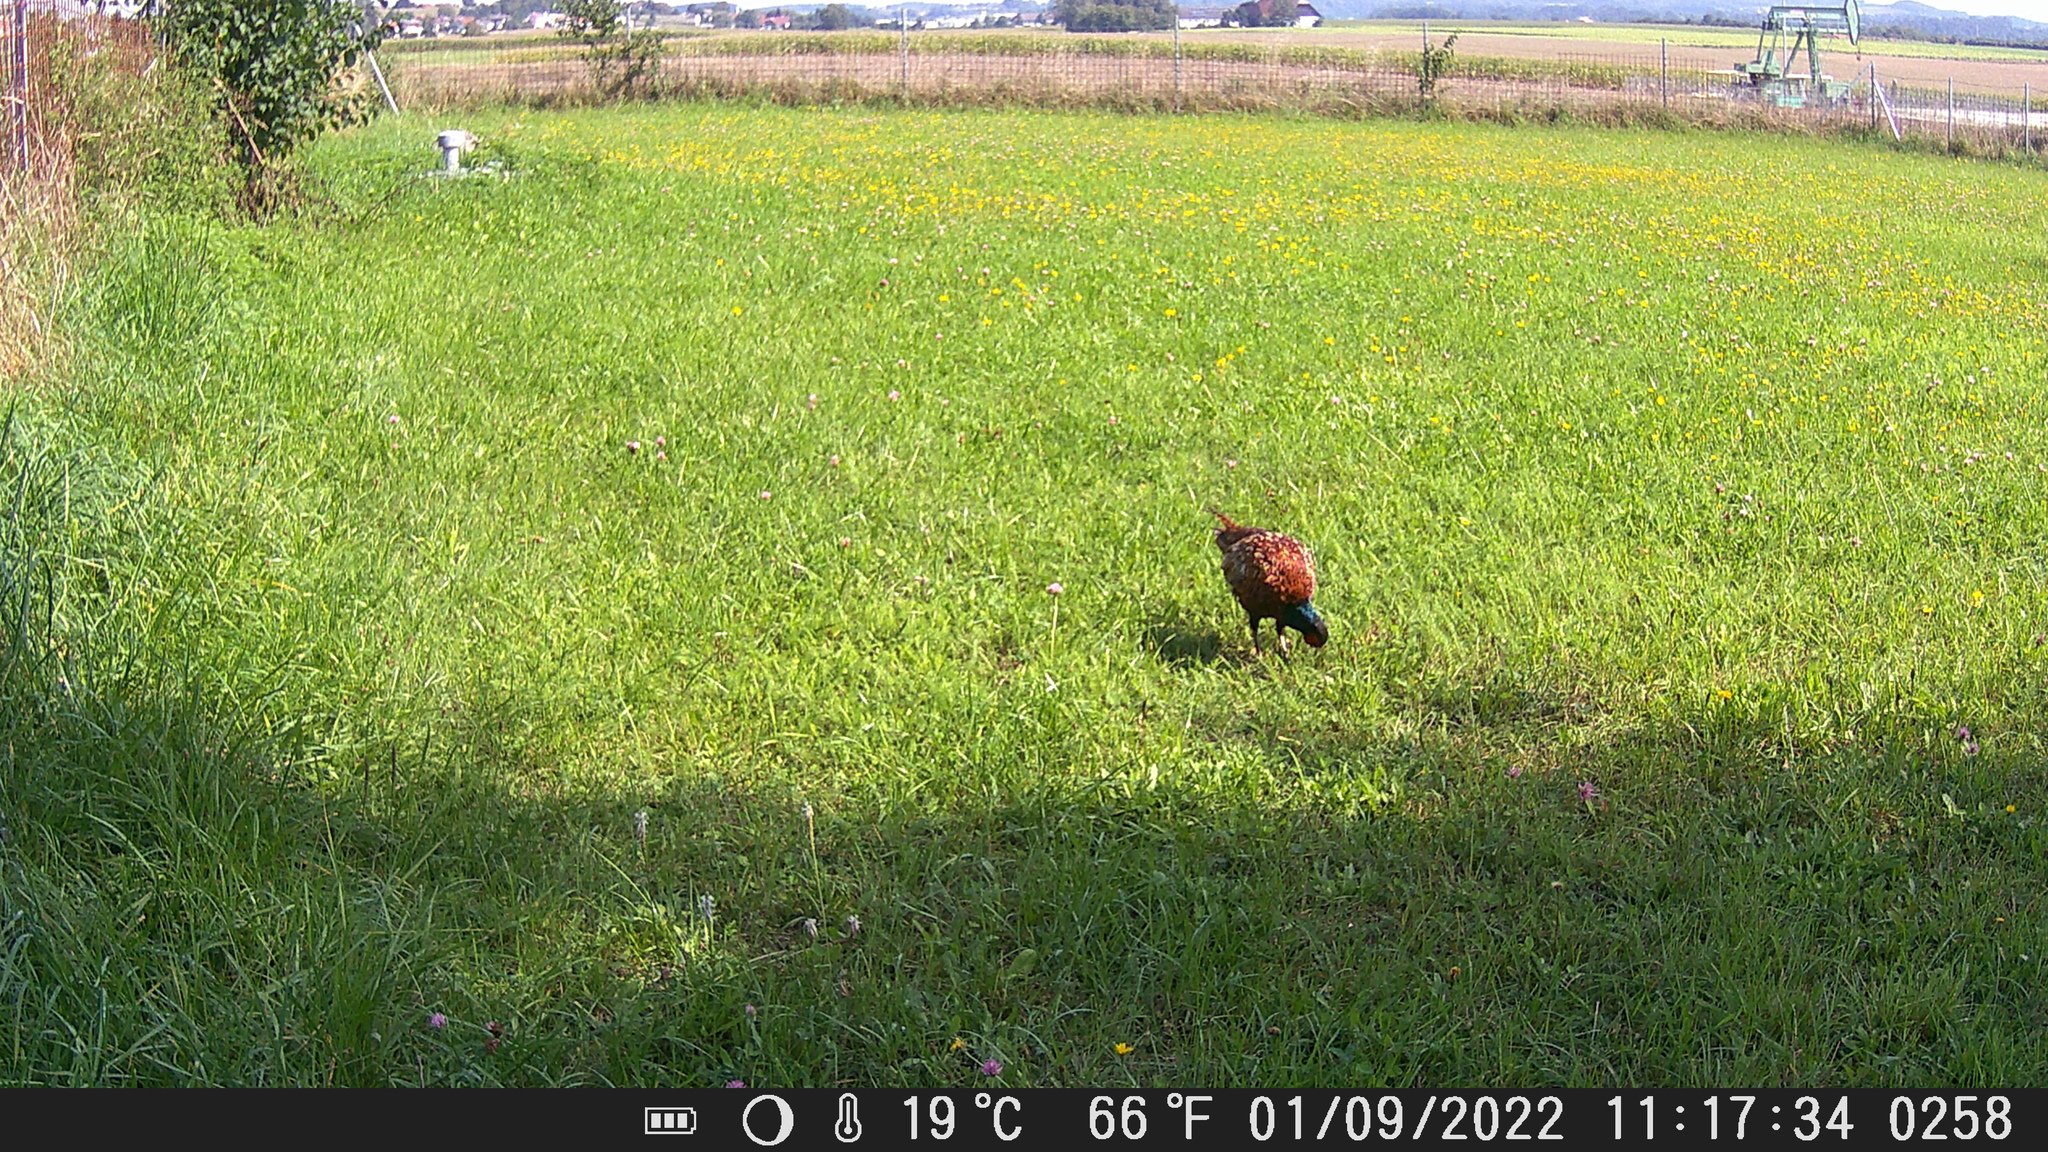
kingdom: Animalia
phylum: Chordata
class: Aves
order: Galliformes
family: Phasianidae
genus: Phasianus
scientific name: Phasianus colchicus
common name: Common pheasant
